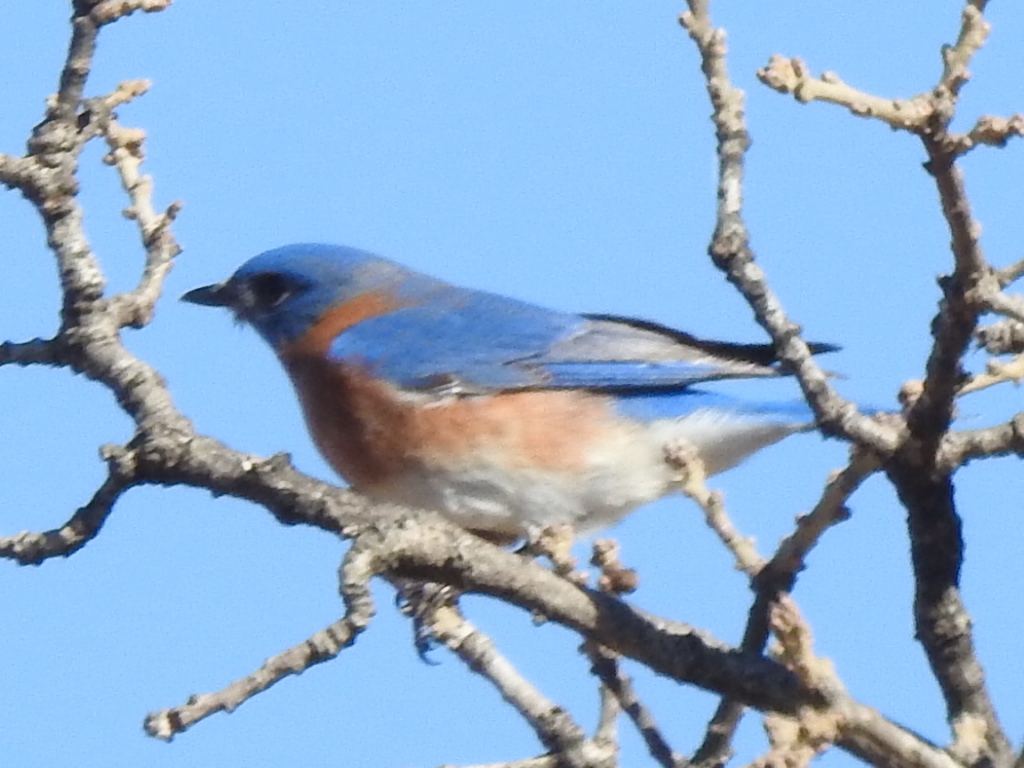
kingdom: Animalia
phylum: Chordata
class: Aves
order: Passeriformes
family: Turdidae
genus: Sialia
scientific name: Sialia sialis
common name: Eastern bluebird
